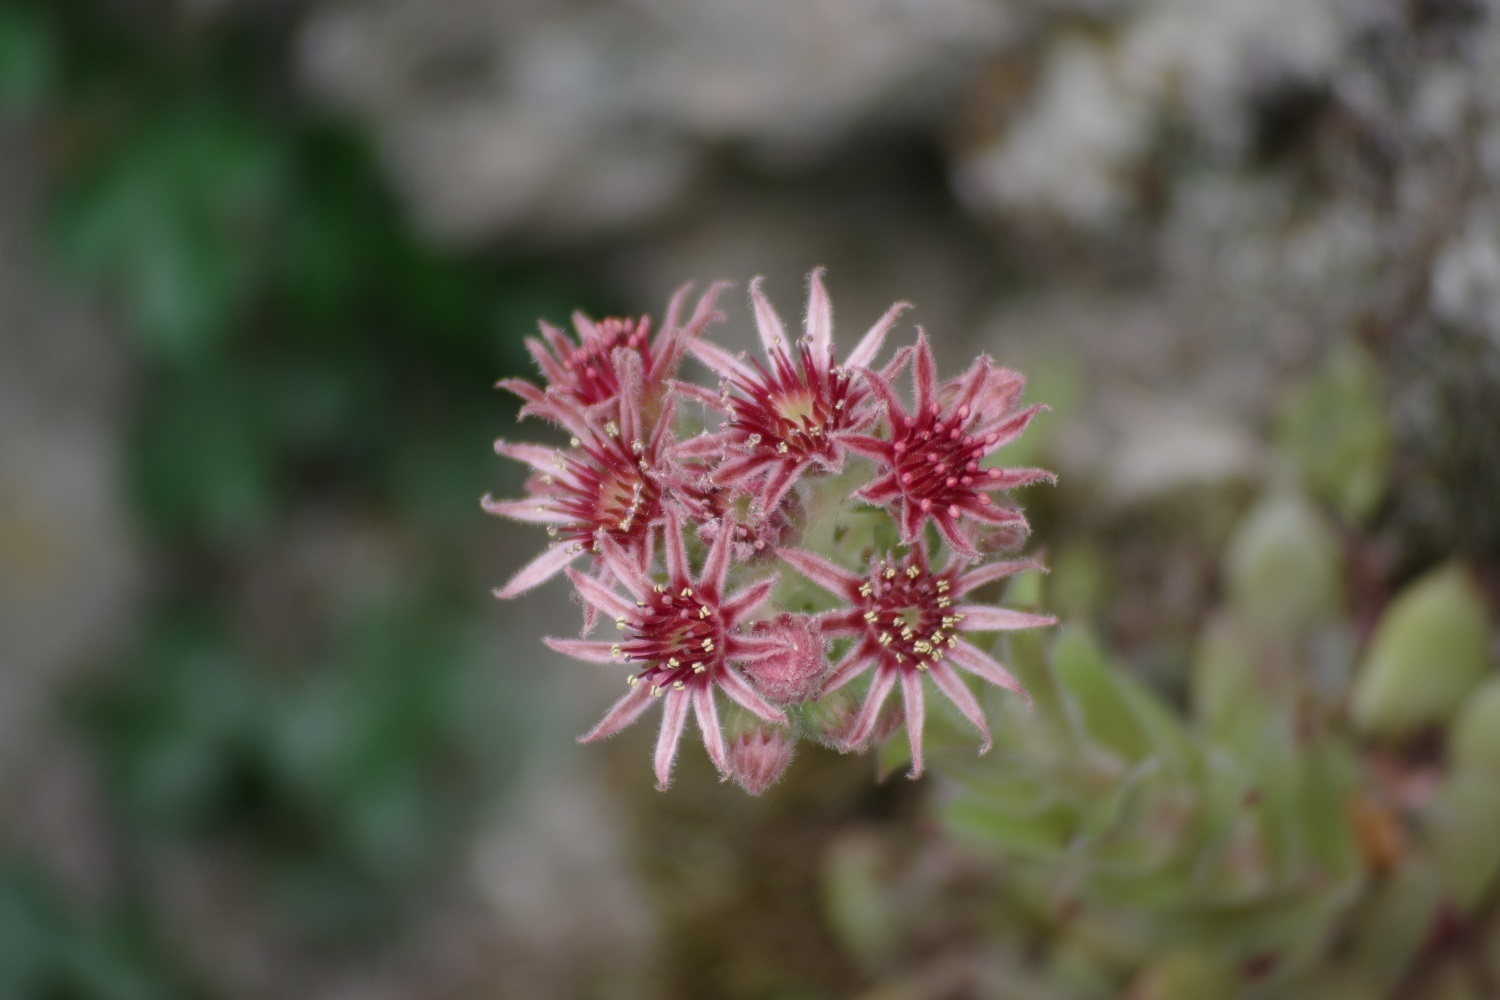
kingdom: Plantae
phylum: Tracheophyta
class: Magnoliopsida
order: Saxifragales
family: Crassulaceae
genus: Sempervivum
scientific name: Sempervivum tectorum
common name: House-leek
